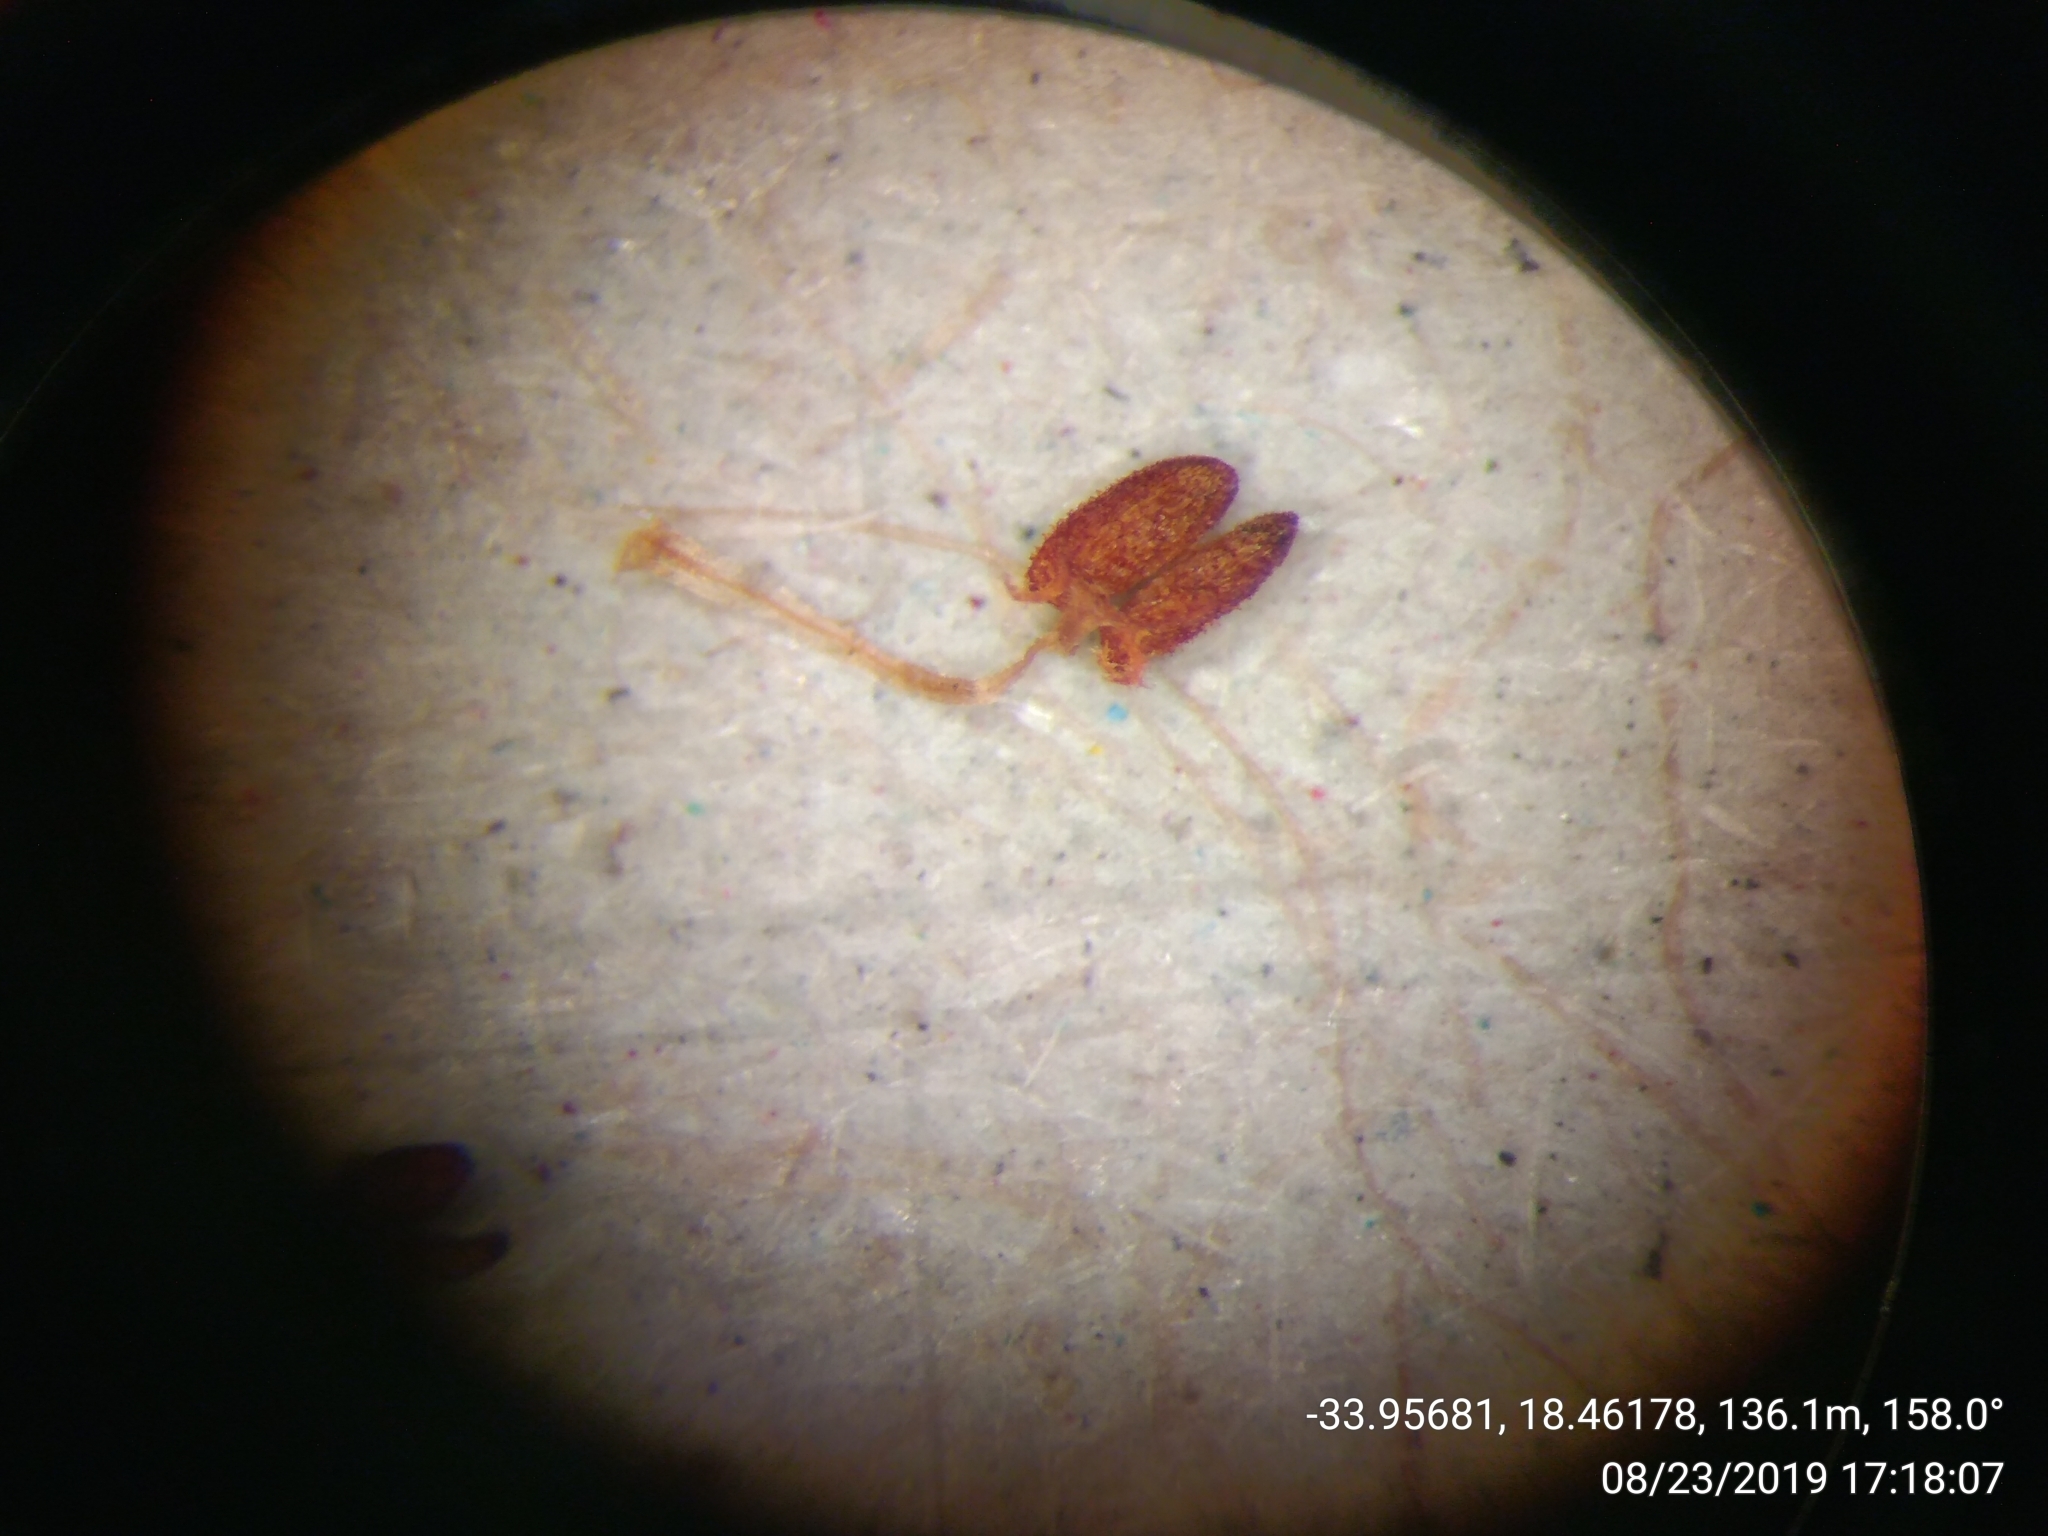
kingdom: Plantae
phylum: Tracheophyta
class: Magnoliopsida
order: Ericales
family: Ericaceae
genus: Erica
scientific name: Erica curvistyla
